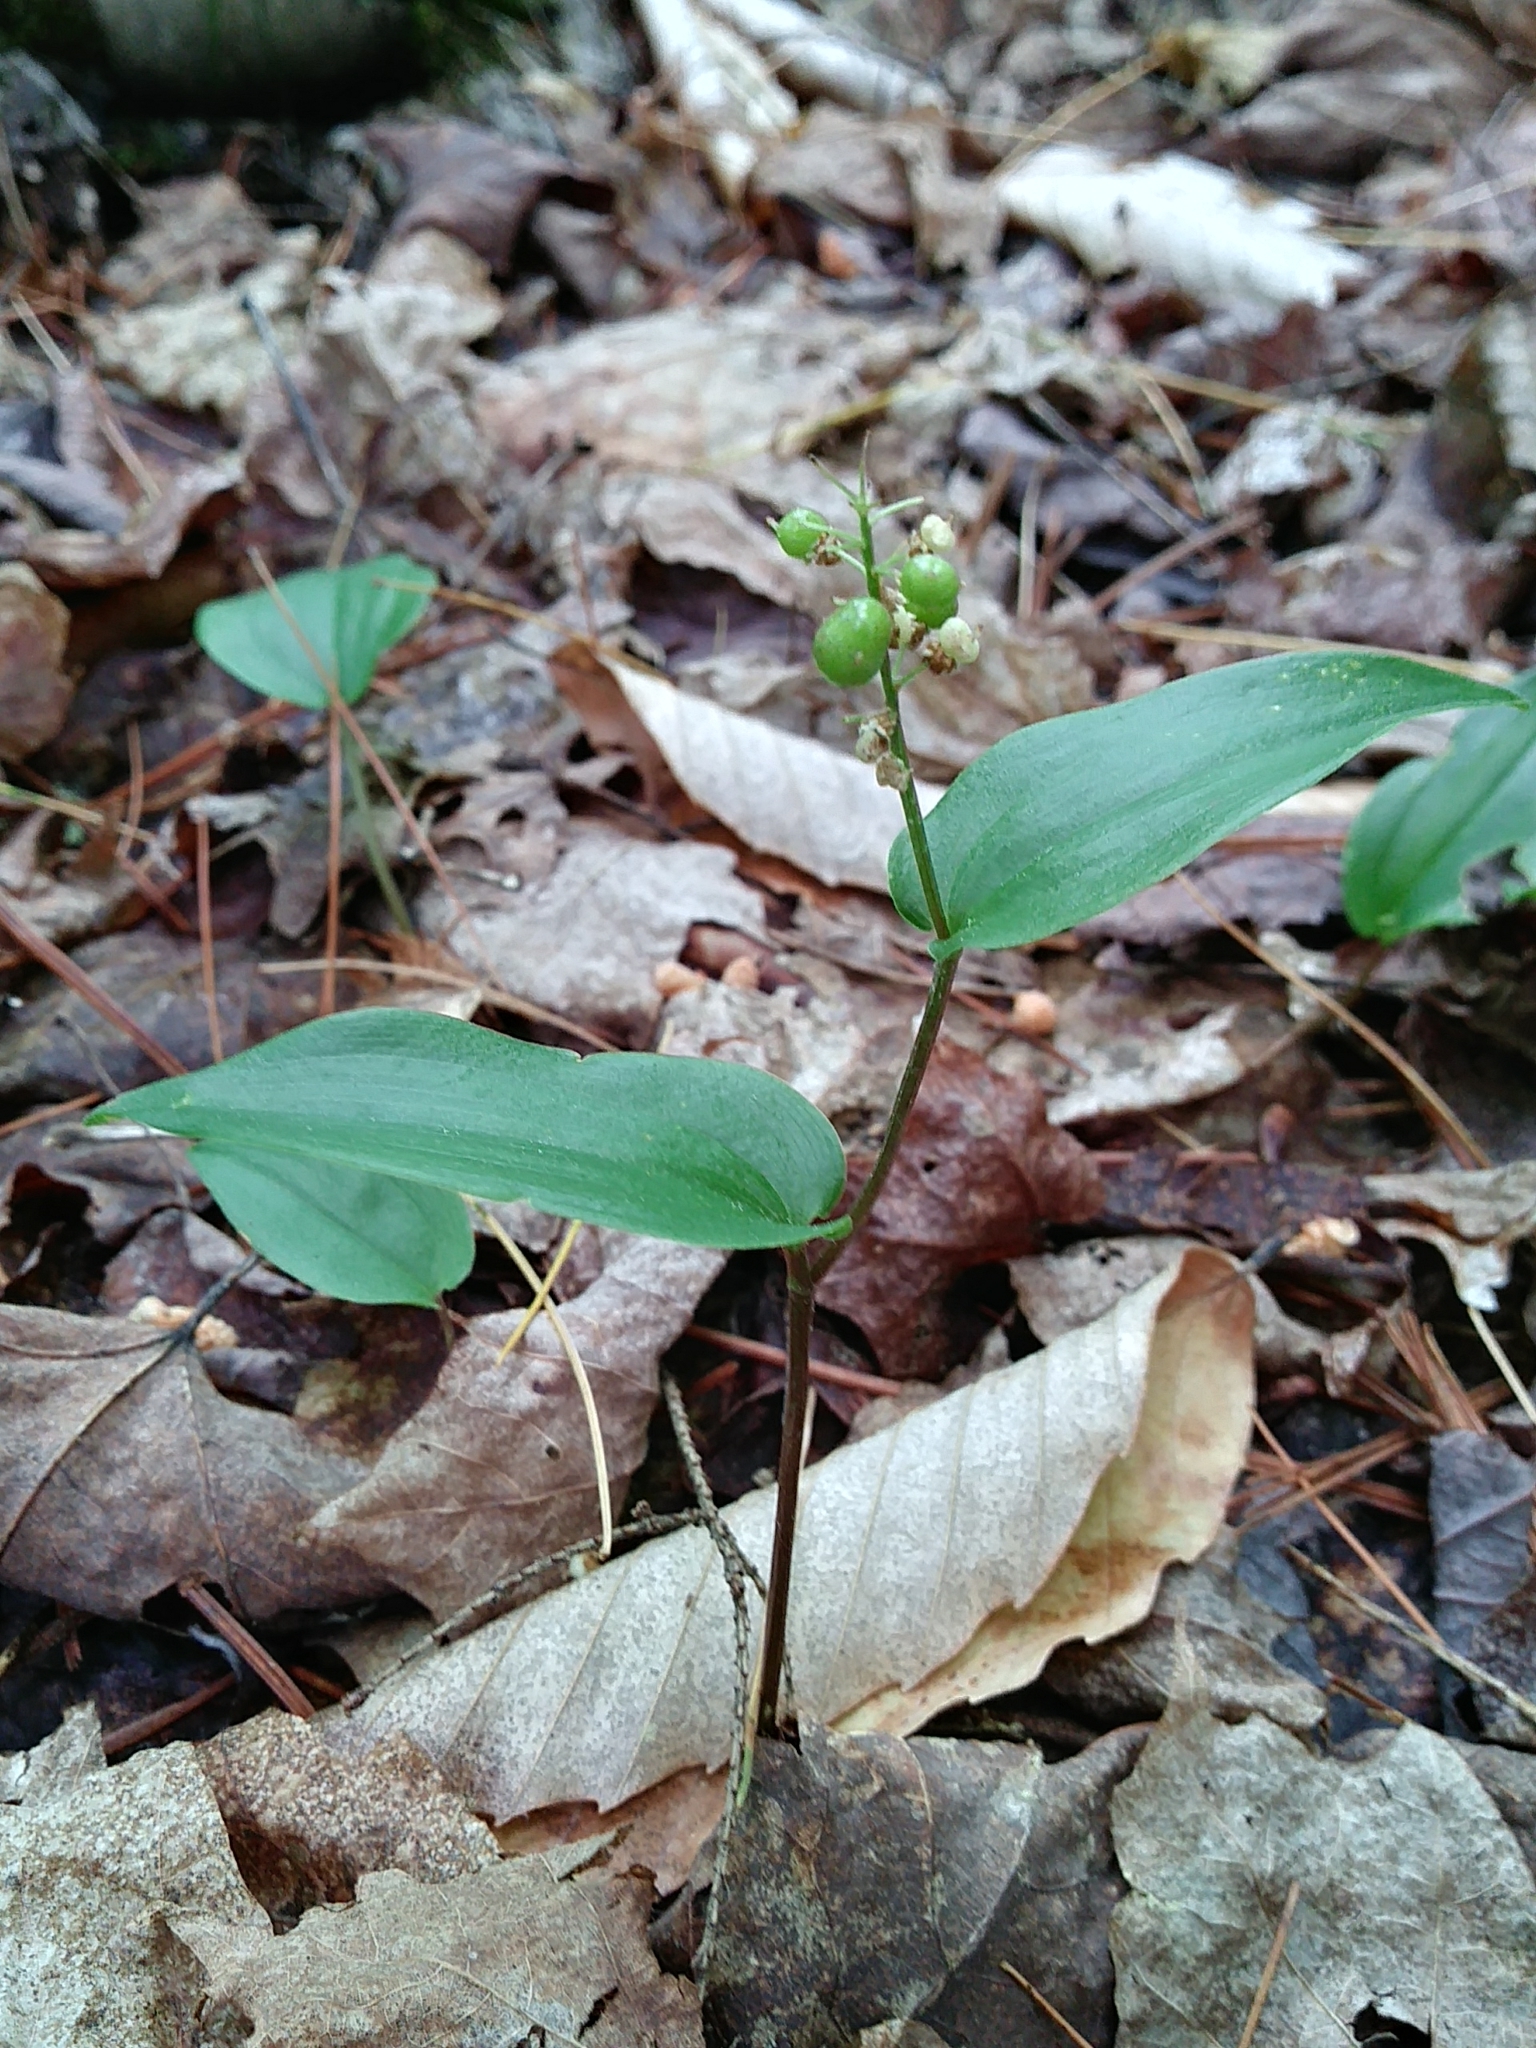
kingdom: Plantae
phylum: Tracheophyta
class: Liliopsida
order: Asparagales
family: Asparagaceae
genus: Maianthemum
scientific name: Maianthemum canadense
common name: False lily-of-the-valley
